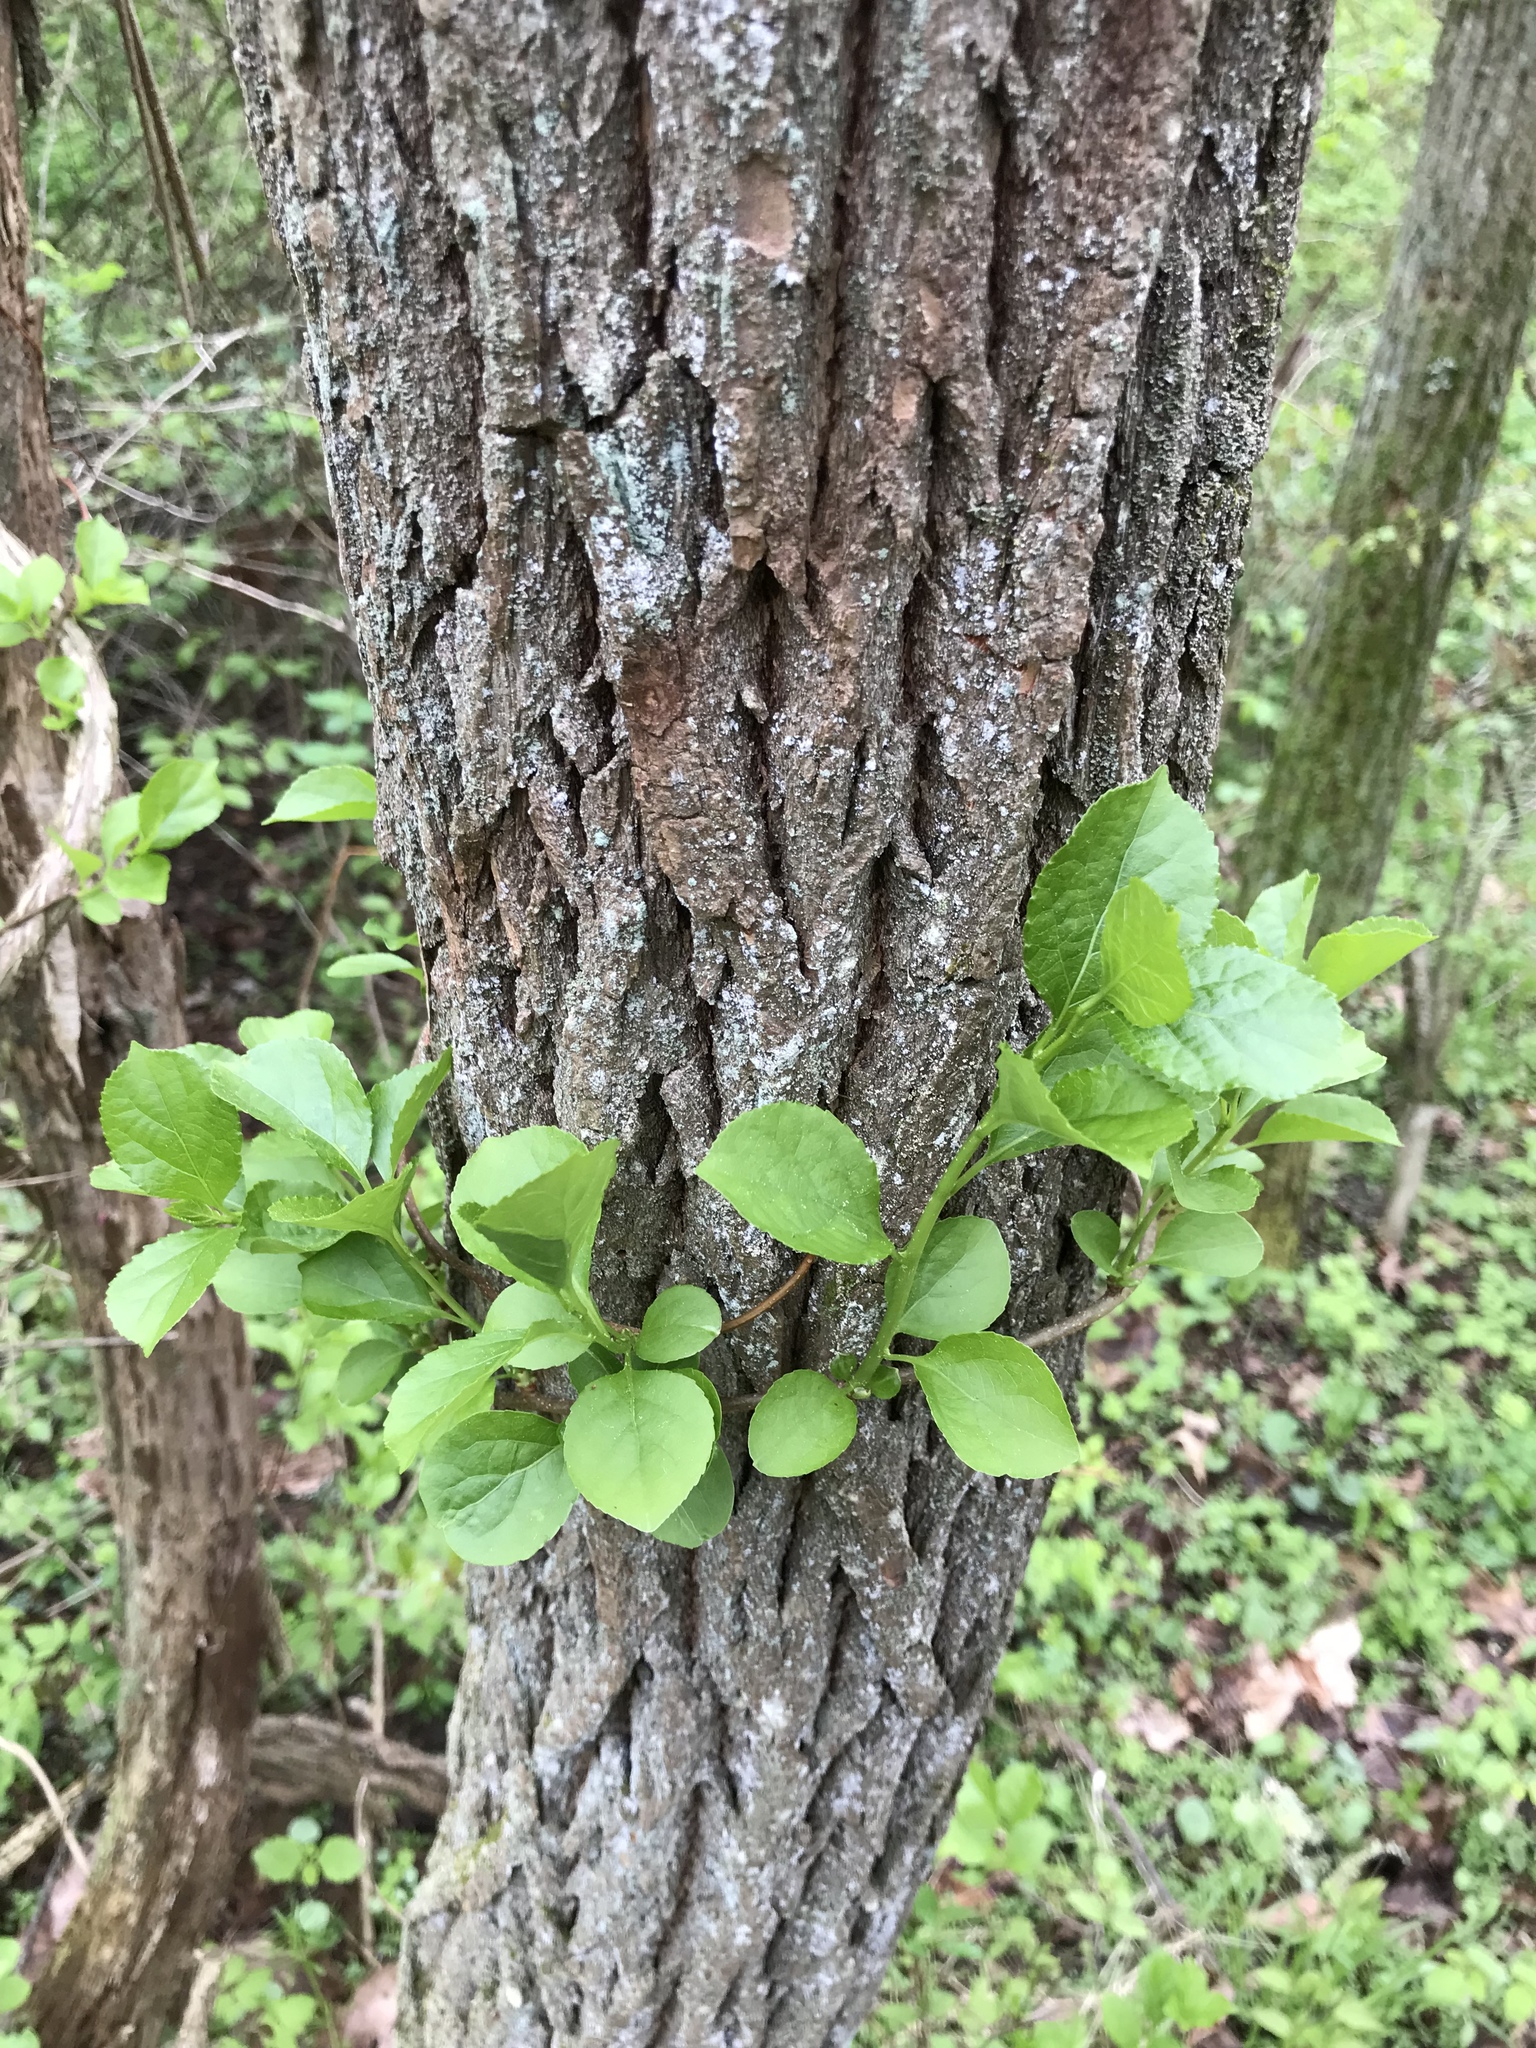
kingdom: Plantae
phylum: Tracheophyta
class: Magnoliopsida
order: Celastrales
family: Celastraceae
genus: Celastrus
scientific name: Celastrus orbiculatus
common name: Oriental bittersweet
